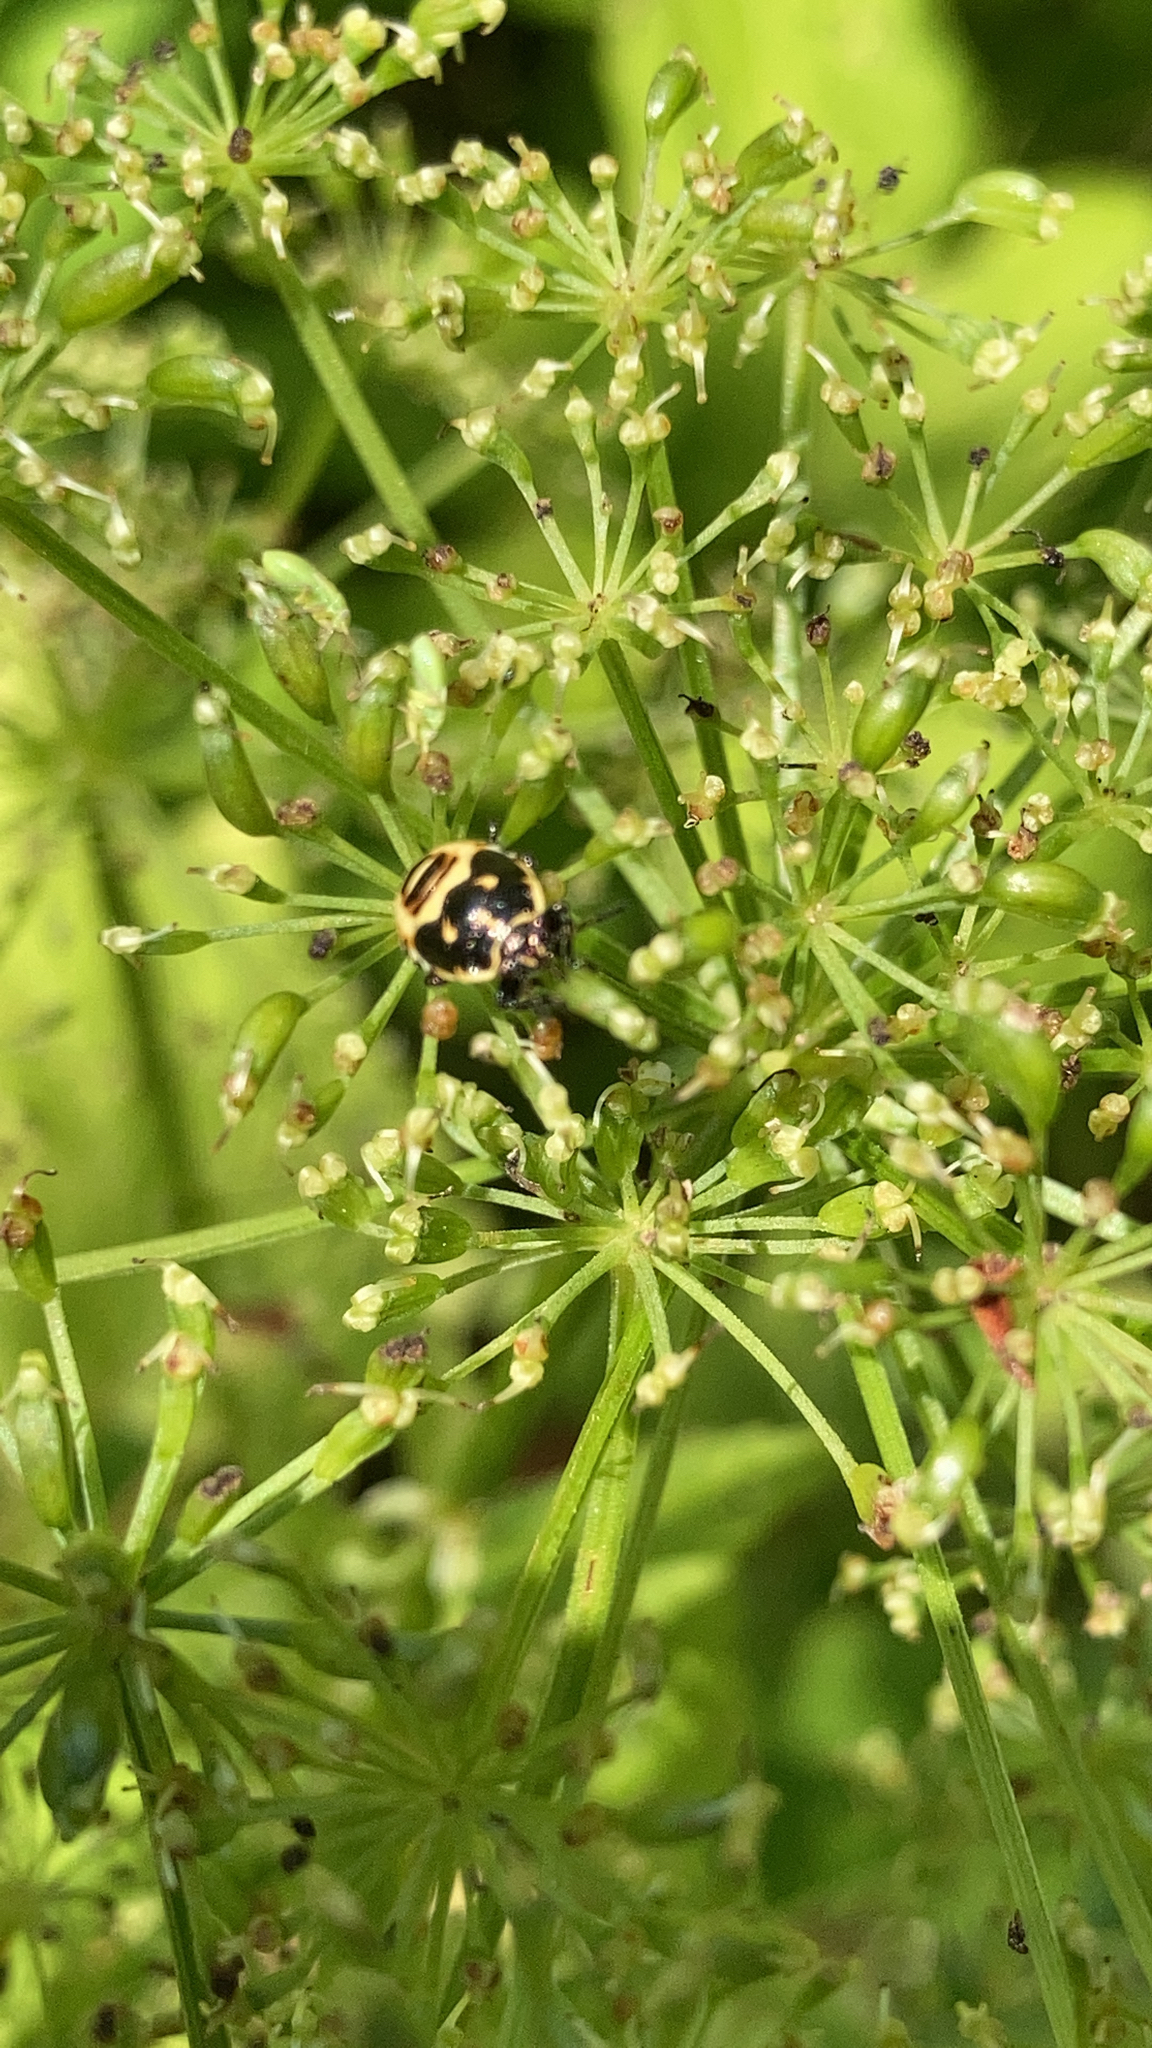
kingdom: Animalia
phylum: Arthropoda
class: Insecta
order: Hemiptera
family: Pentatomidae
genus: Eurydema
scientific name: Eurydema oleracea
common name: Cabbage bug
